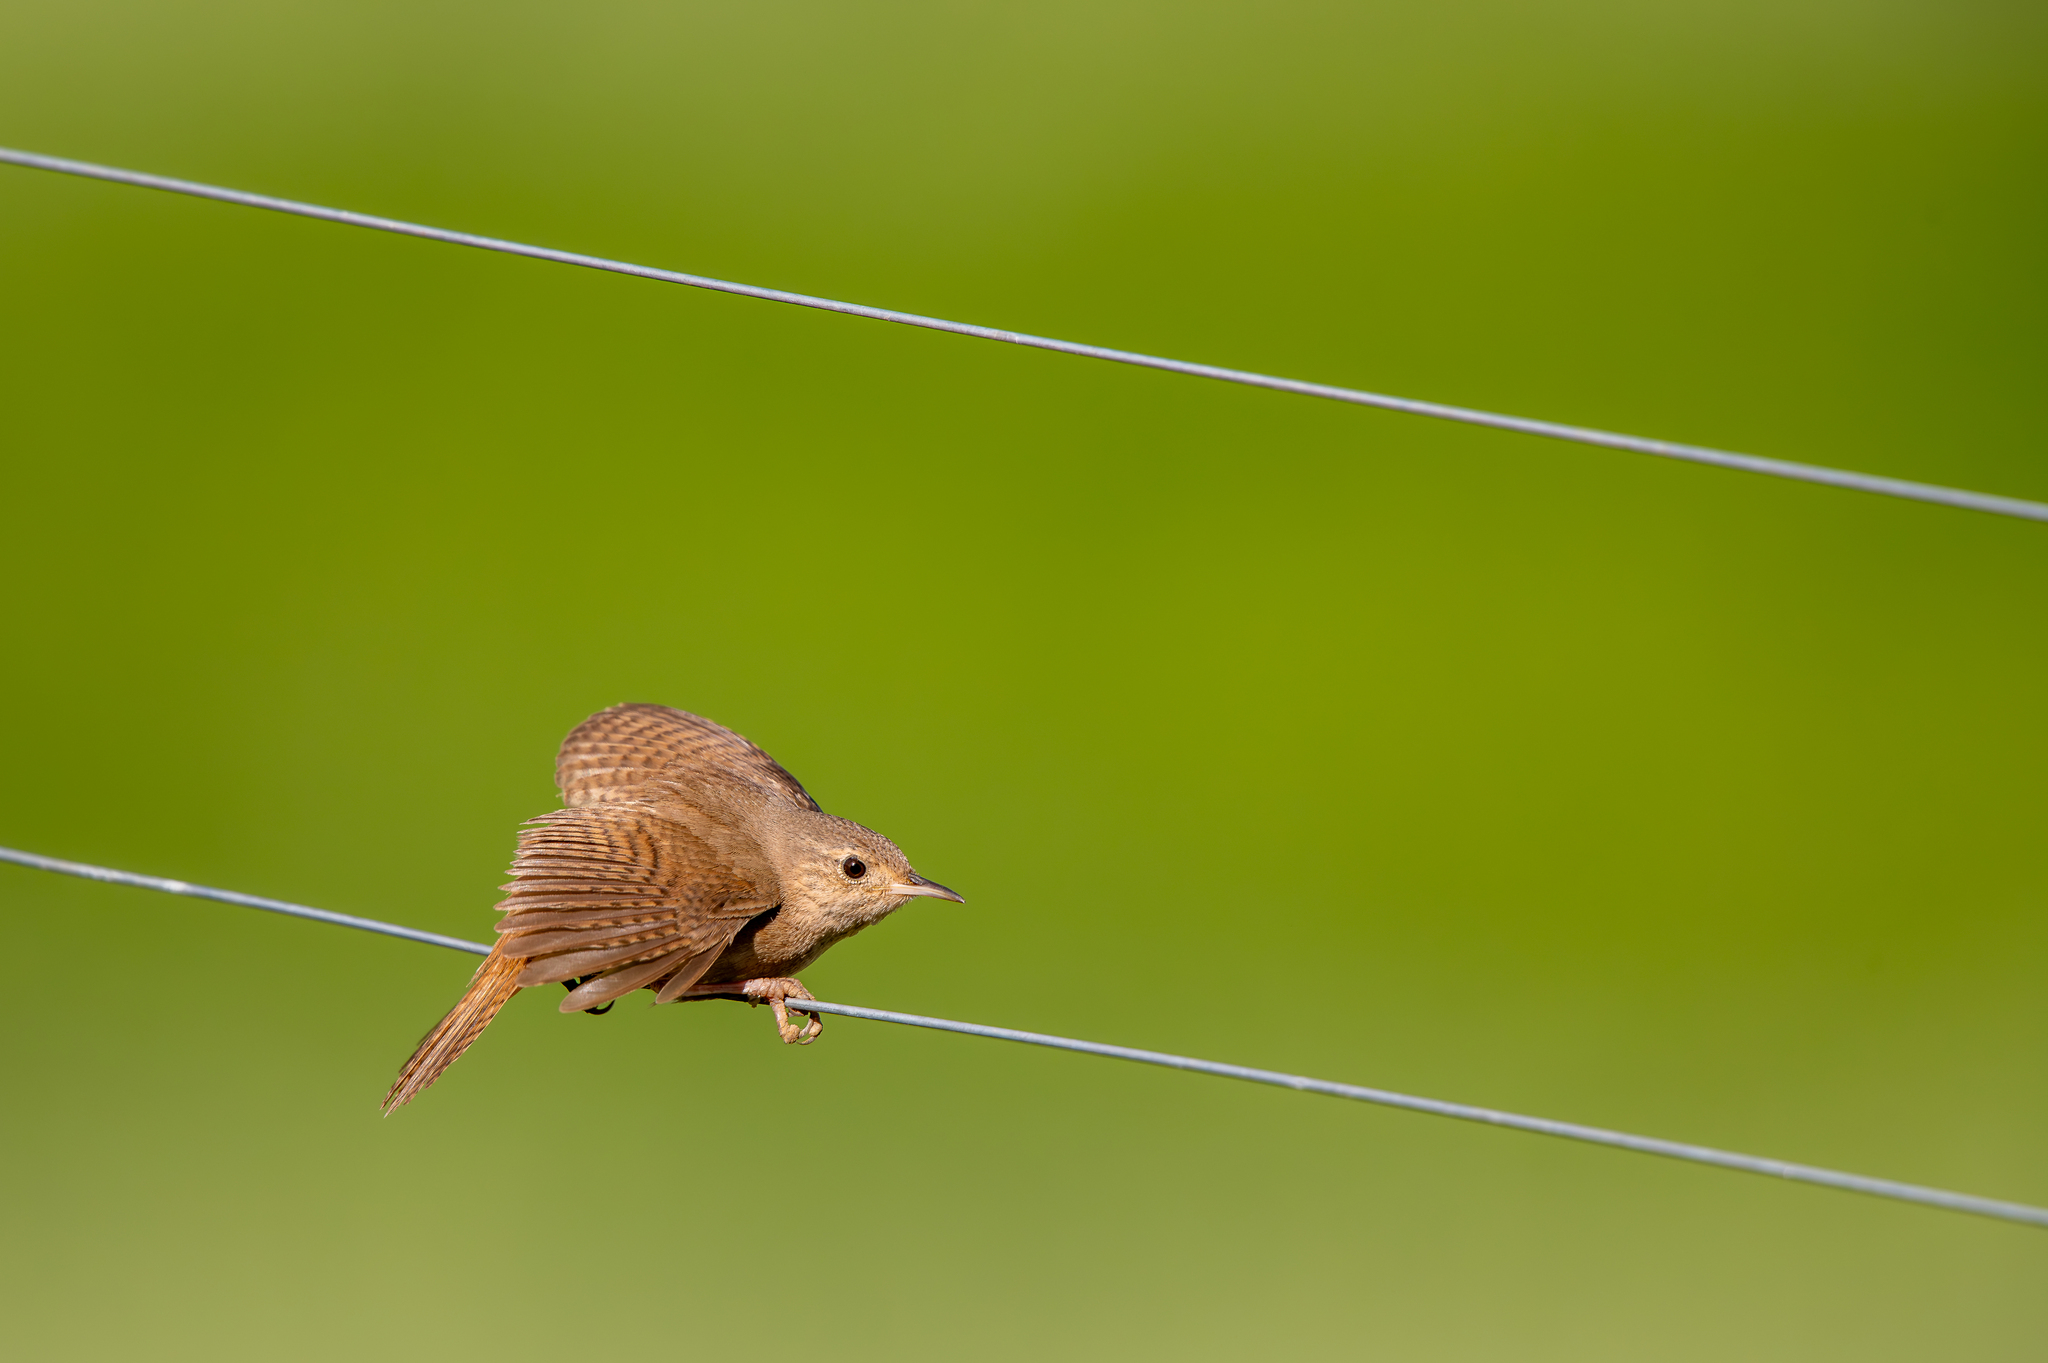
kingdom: Animalia
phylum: Chordata
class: Aves
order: Passeriformes
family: Troglodytidae
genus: Troglodytes
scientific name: Troglodytes aedon
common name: House wren
